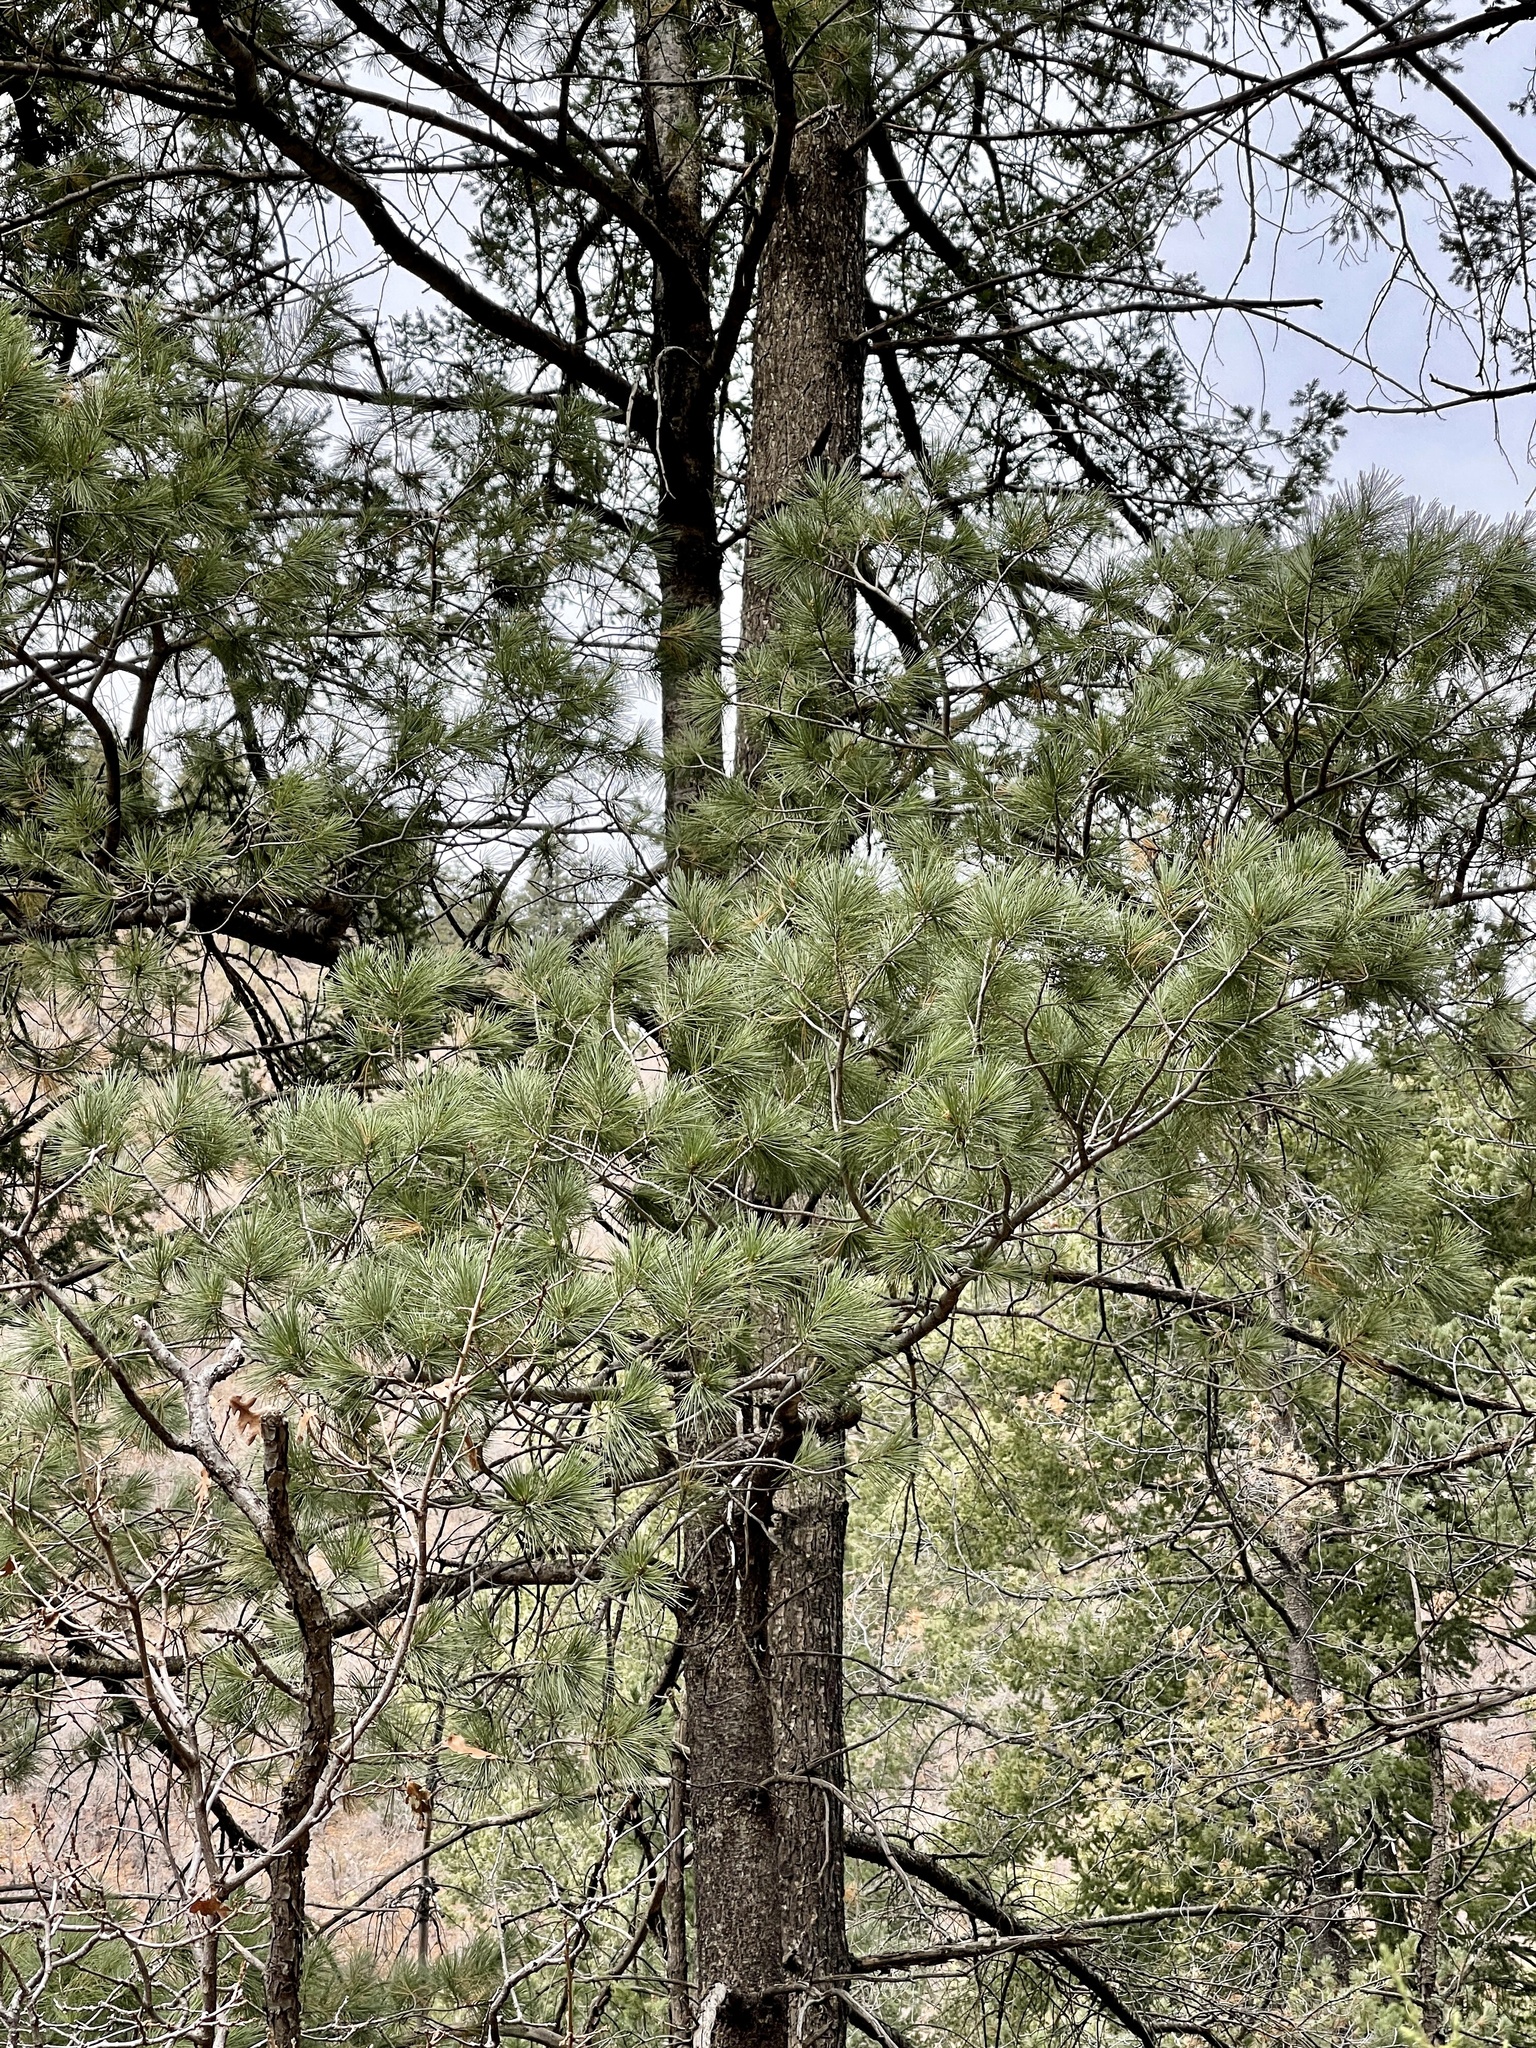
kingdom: Plantae
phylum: Tracheophyta
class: Pinopsida
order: Pinales
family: Pinaceae
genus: Pinus
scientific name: Pinus strobiformis
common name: Southwestern white pine
